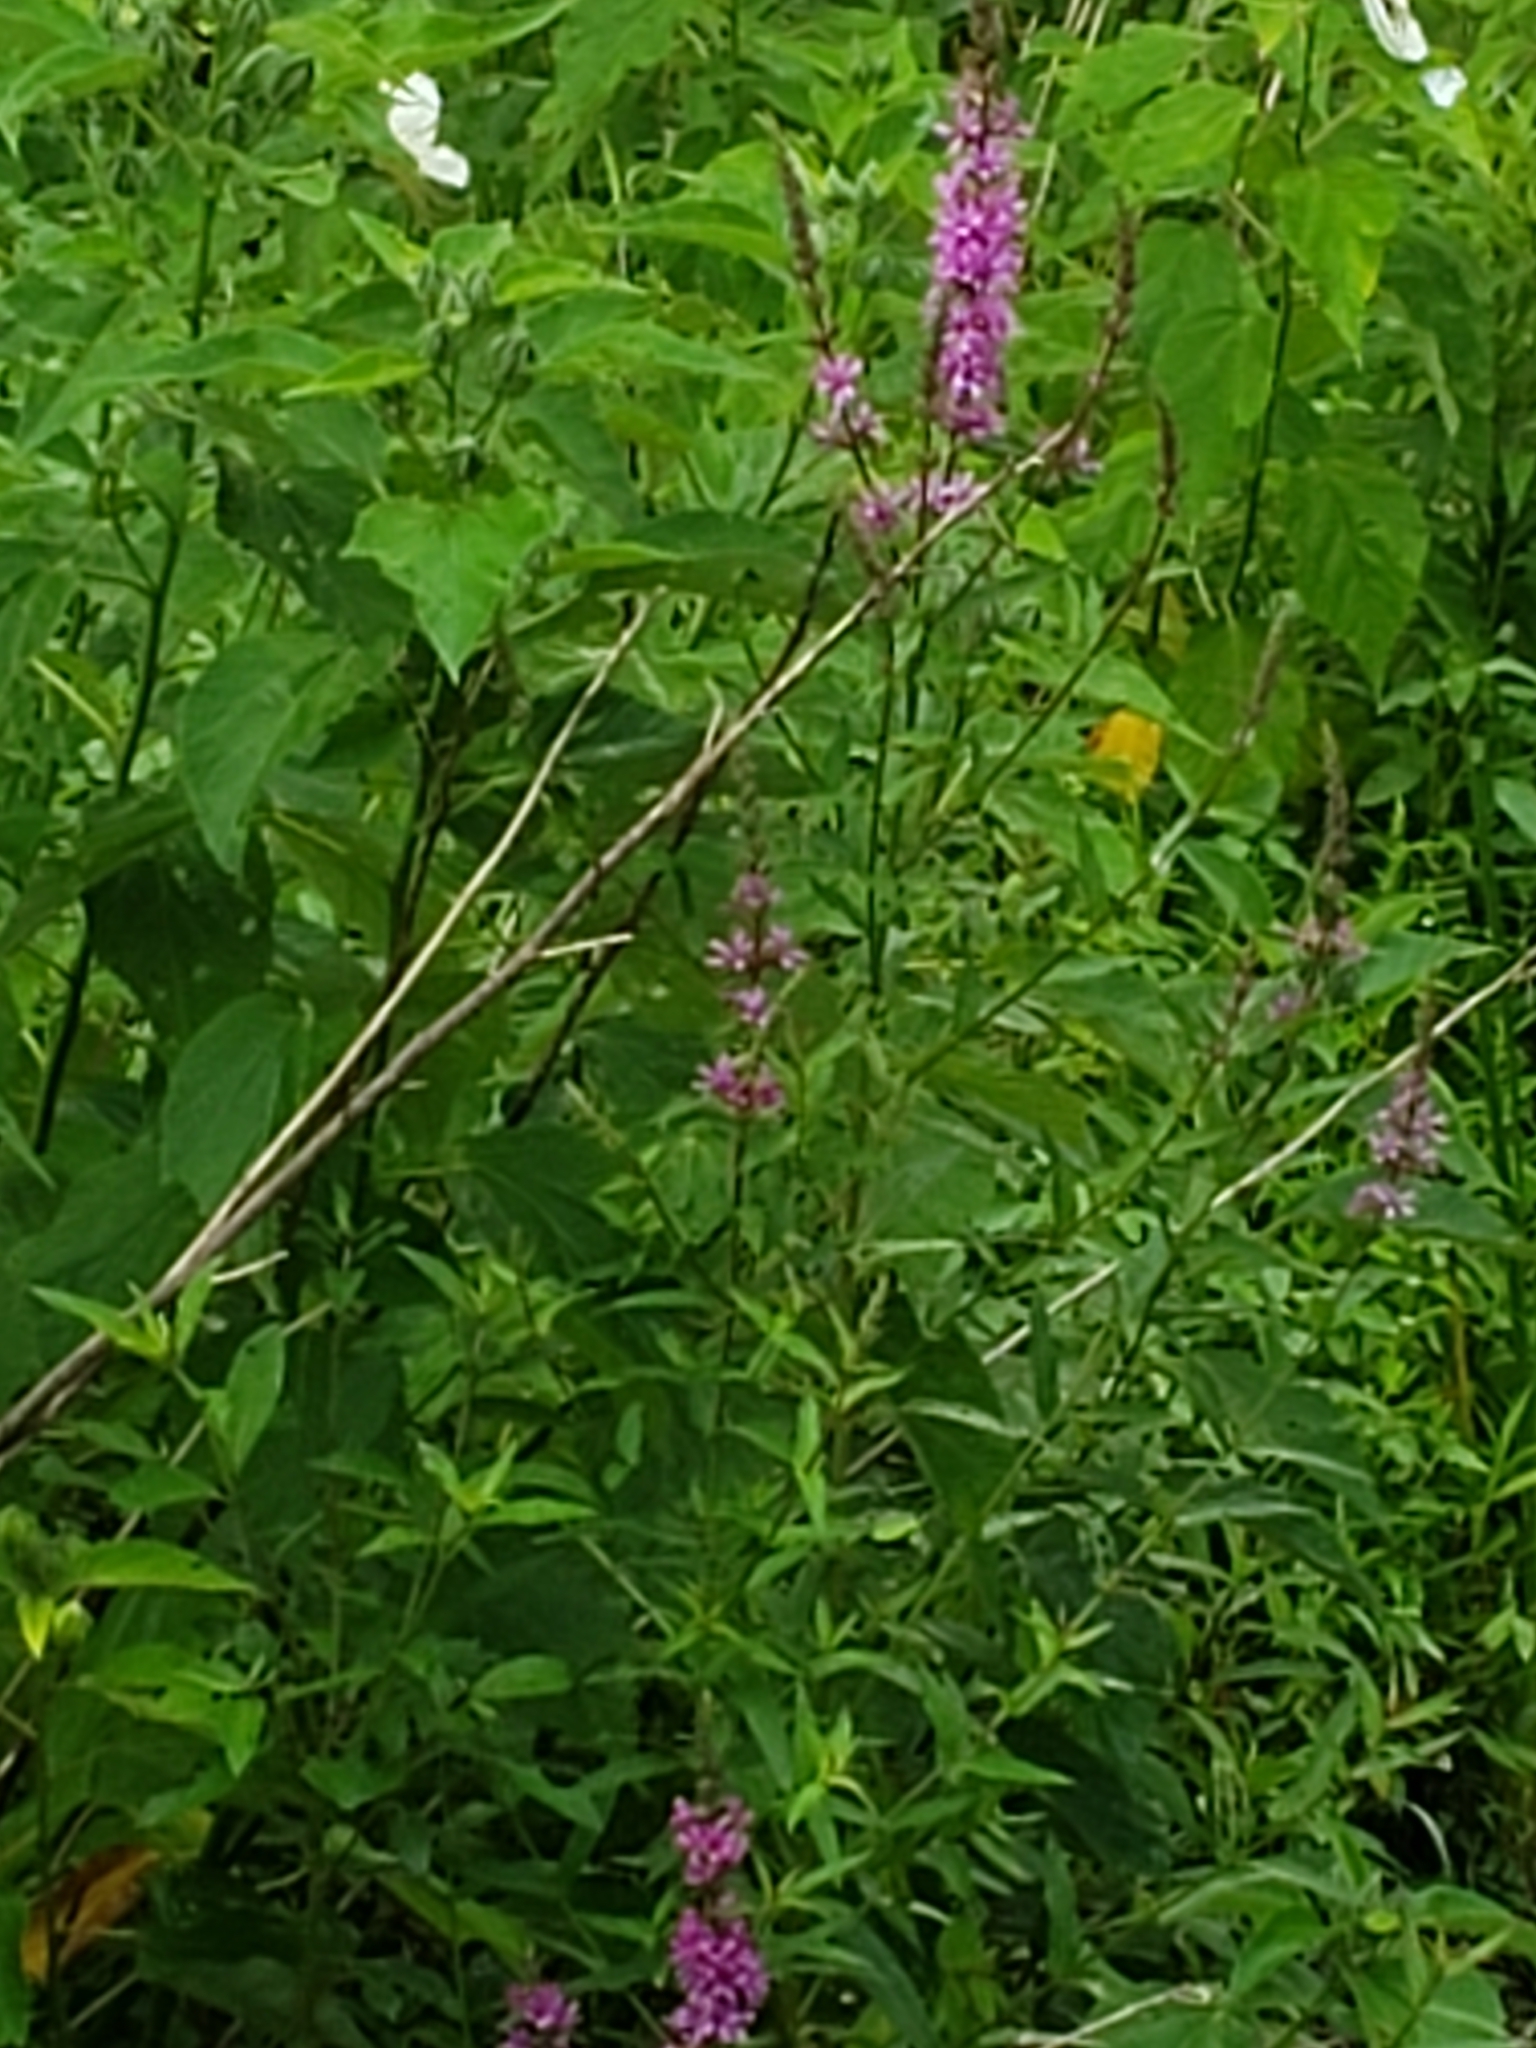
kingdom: Plantae
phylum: Tracheophyta
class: Magnoliopsida
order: Myrtales
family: Lythraceae
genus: Lythrum
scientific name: Lythrum salicaria
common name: Purple loosestrife
